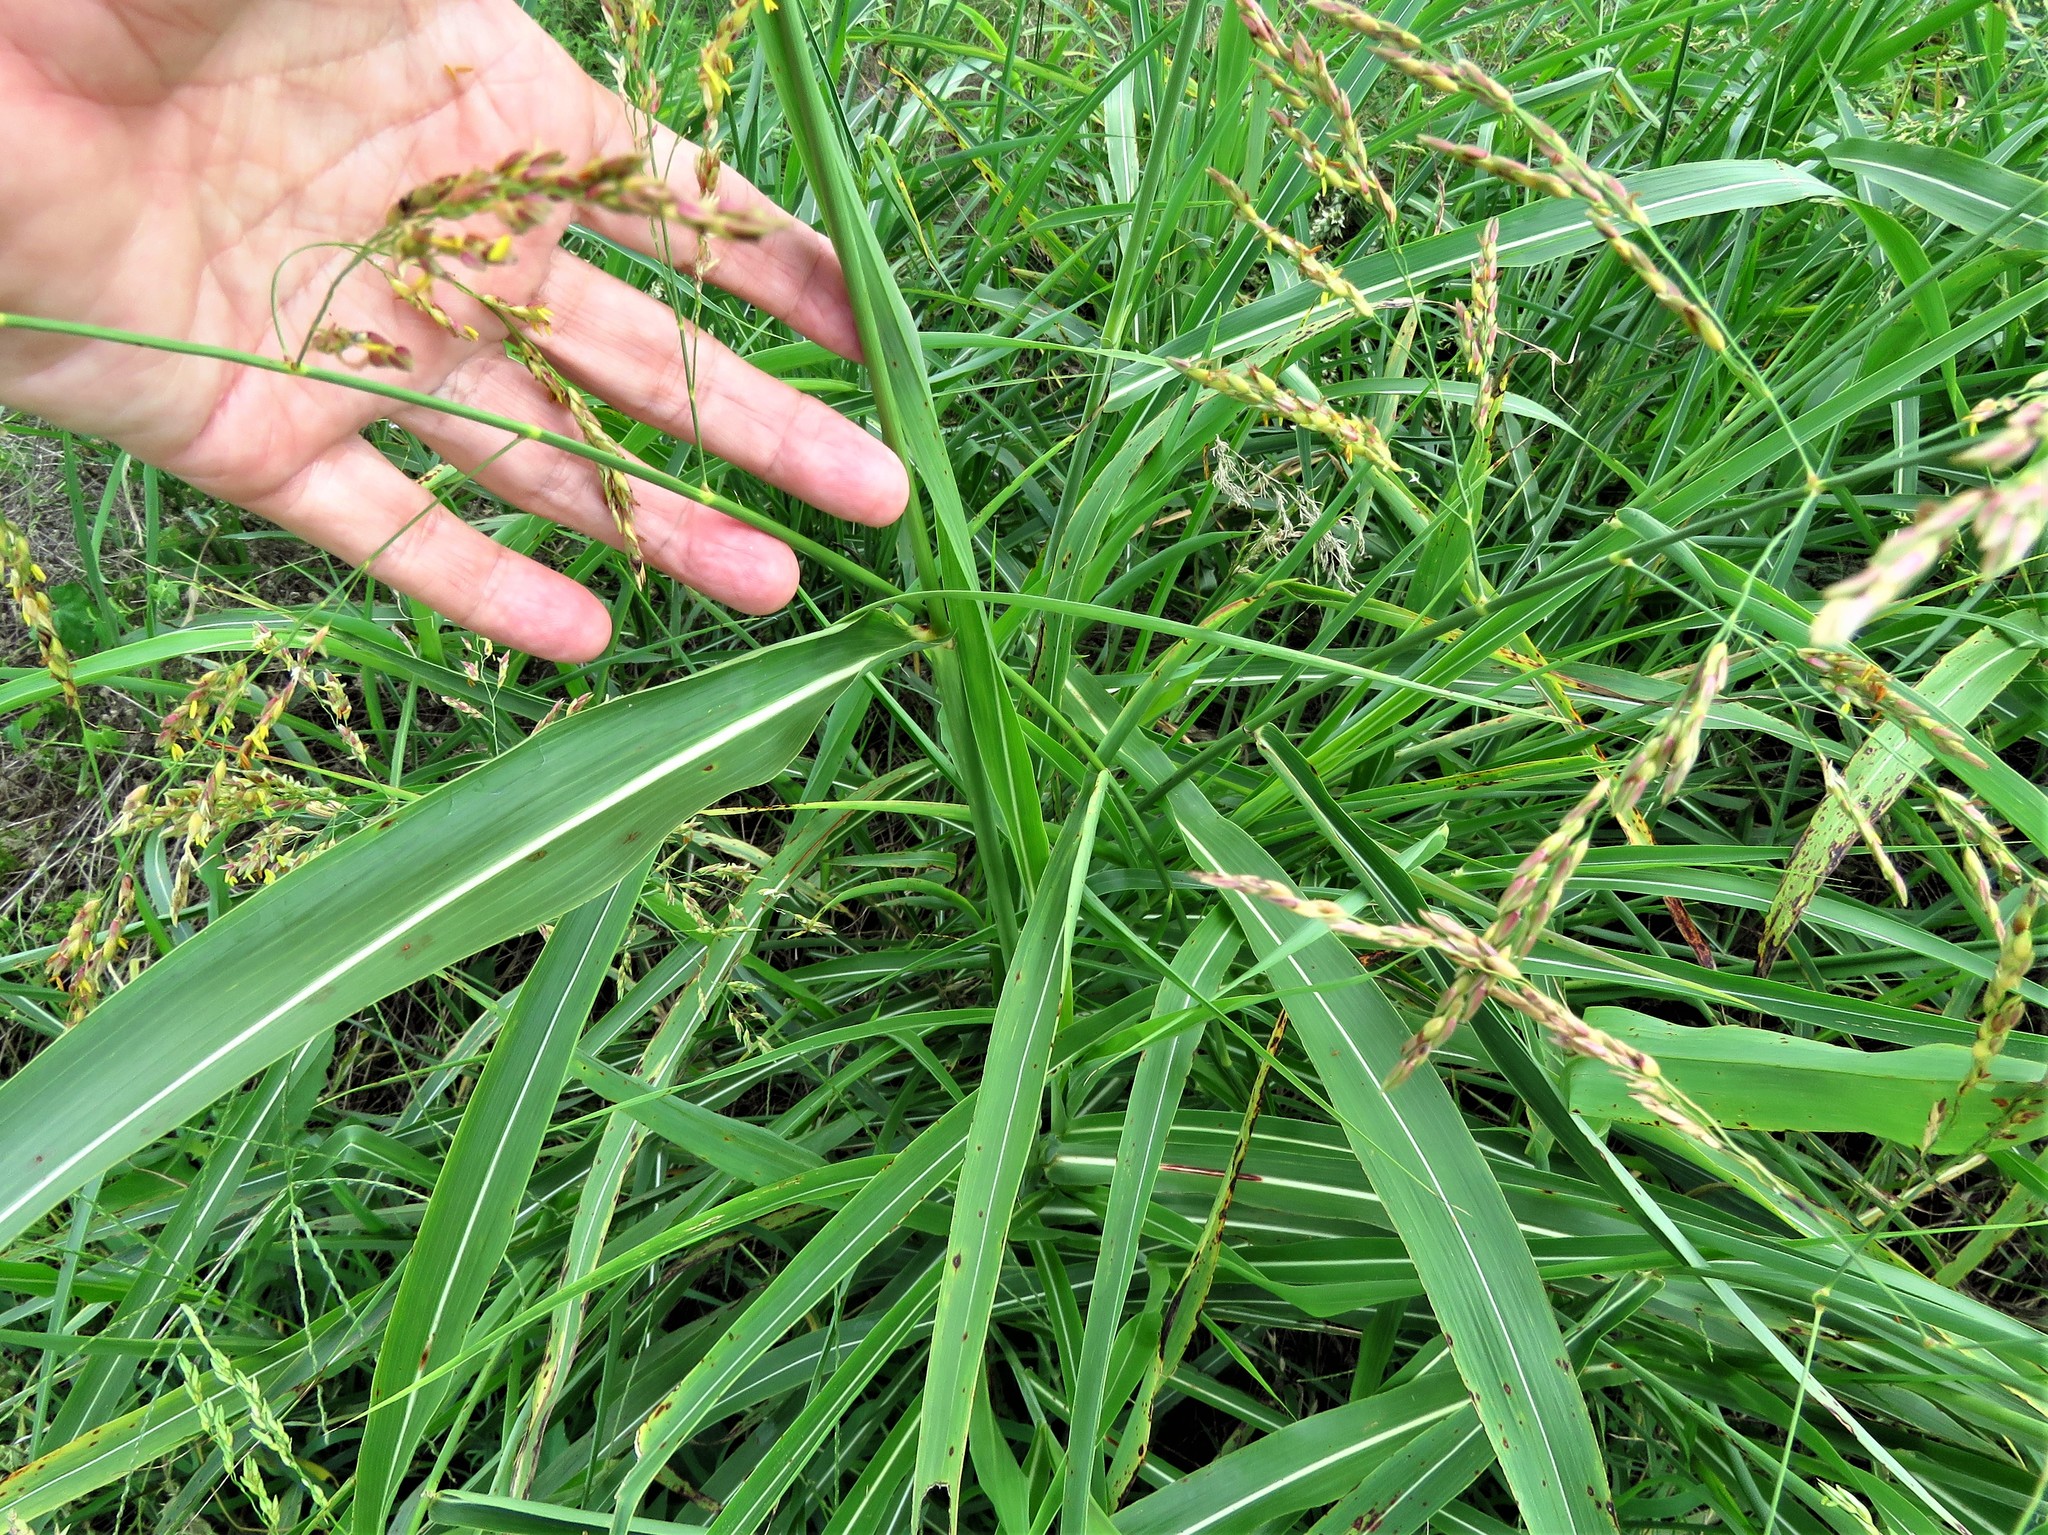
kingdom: Plantae
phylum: Tracheophyta
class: Liliopsida
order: Poales
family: Poaceae
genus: Sorghum
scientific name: Sorghum halepense
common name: Johnson-grass
